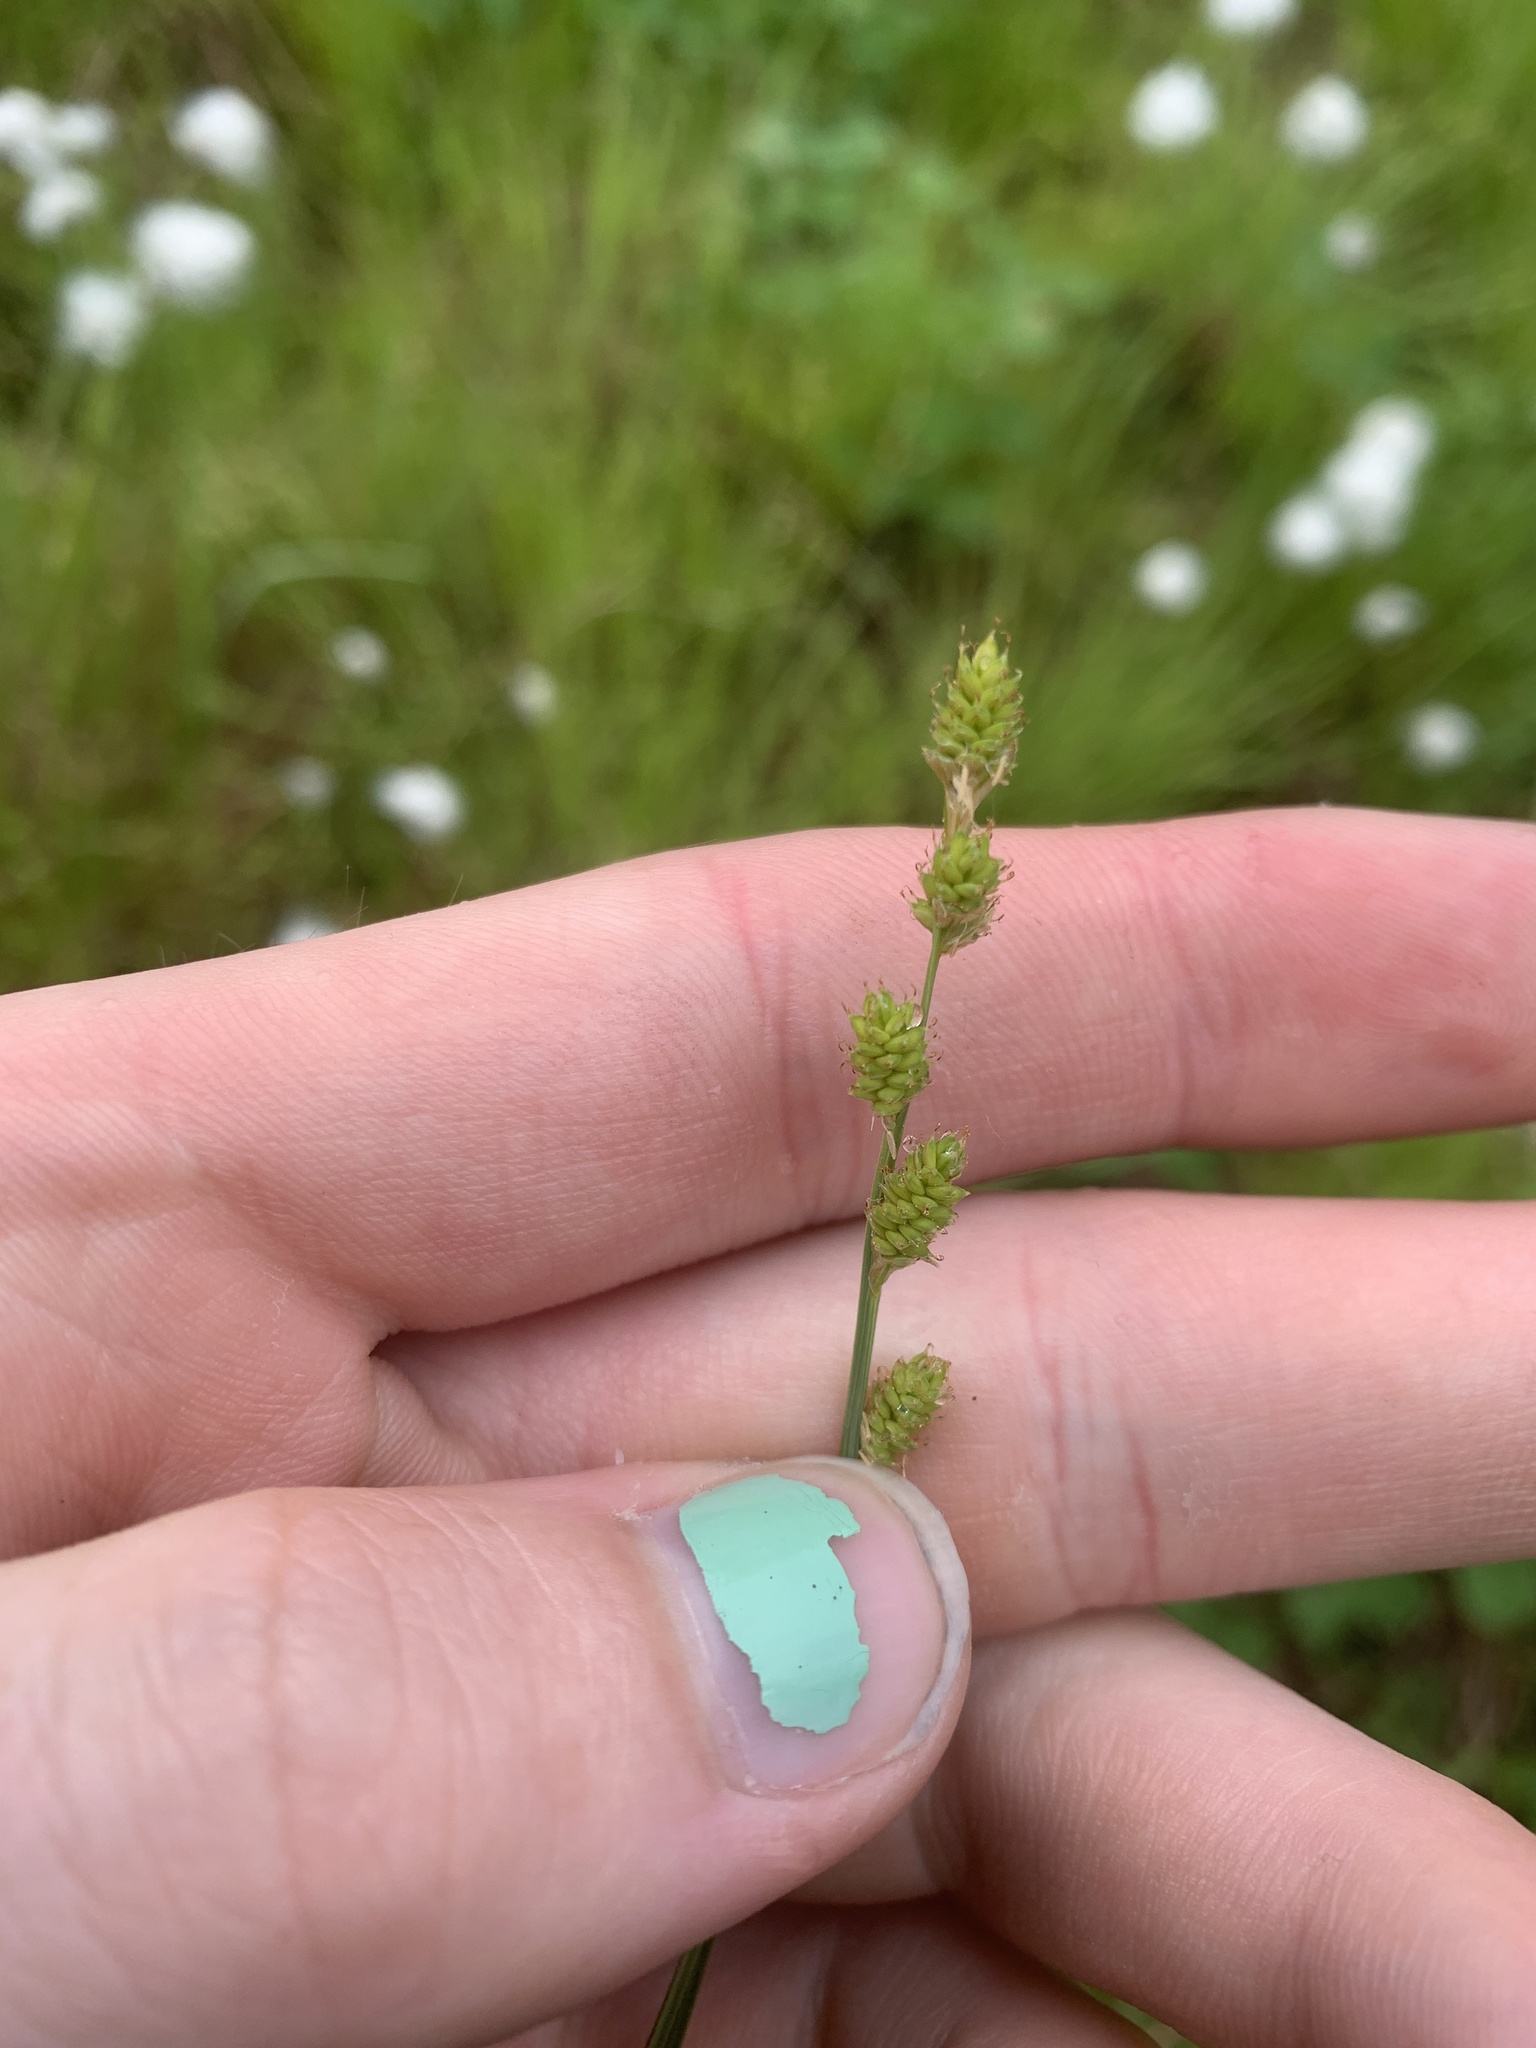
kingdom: Plantae
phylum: Tracheophyta
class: Liliopsida
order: Poales
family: Cyperaceae
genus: Carex
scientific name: Carex canescens
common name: White sedge
